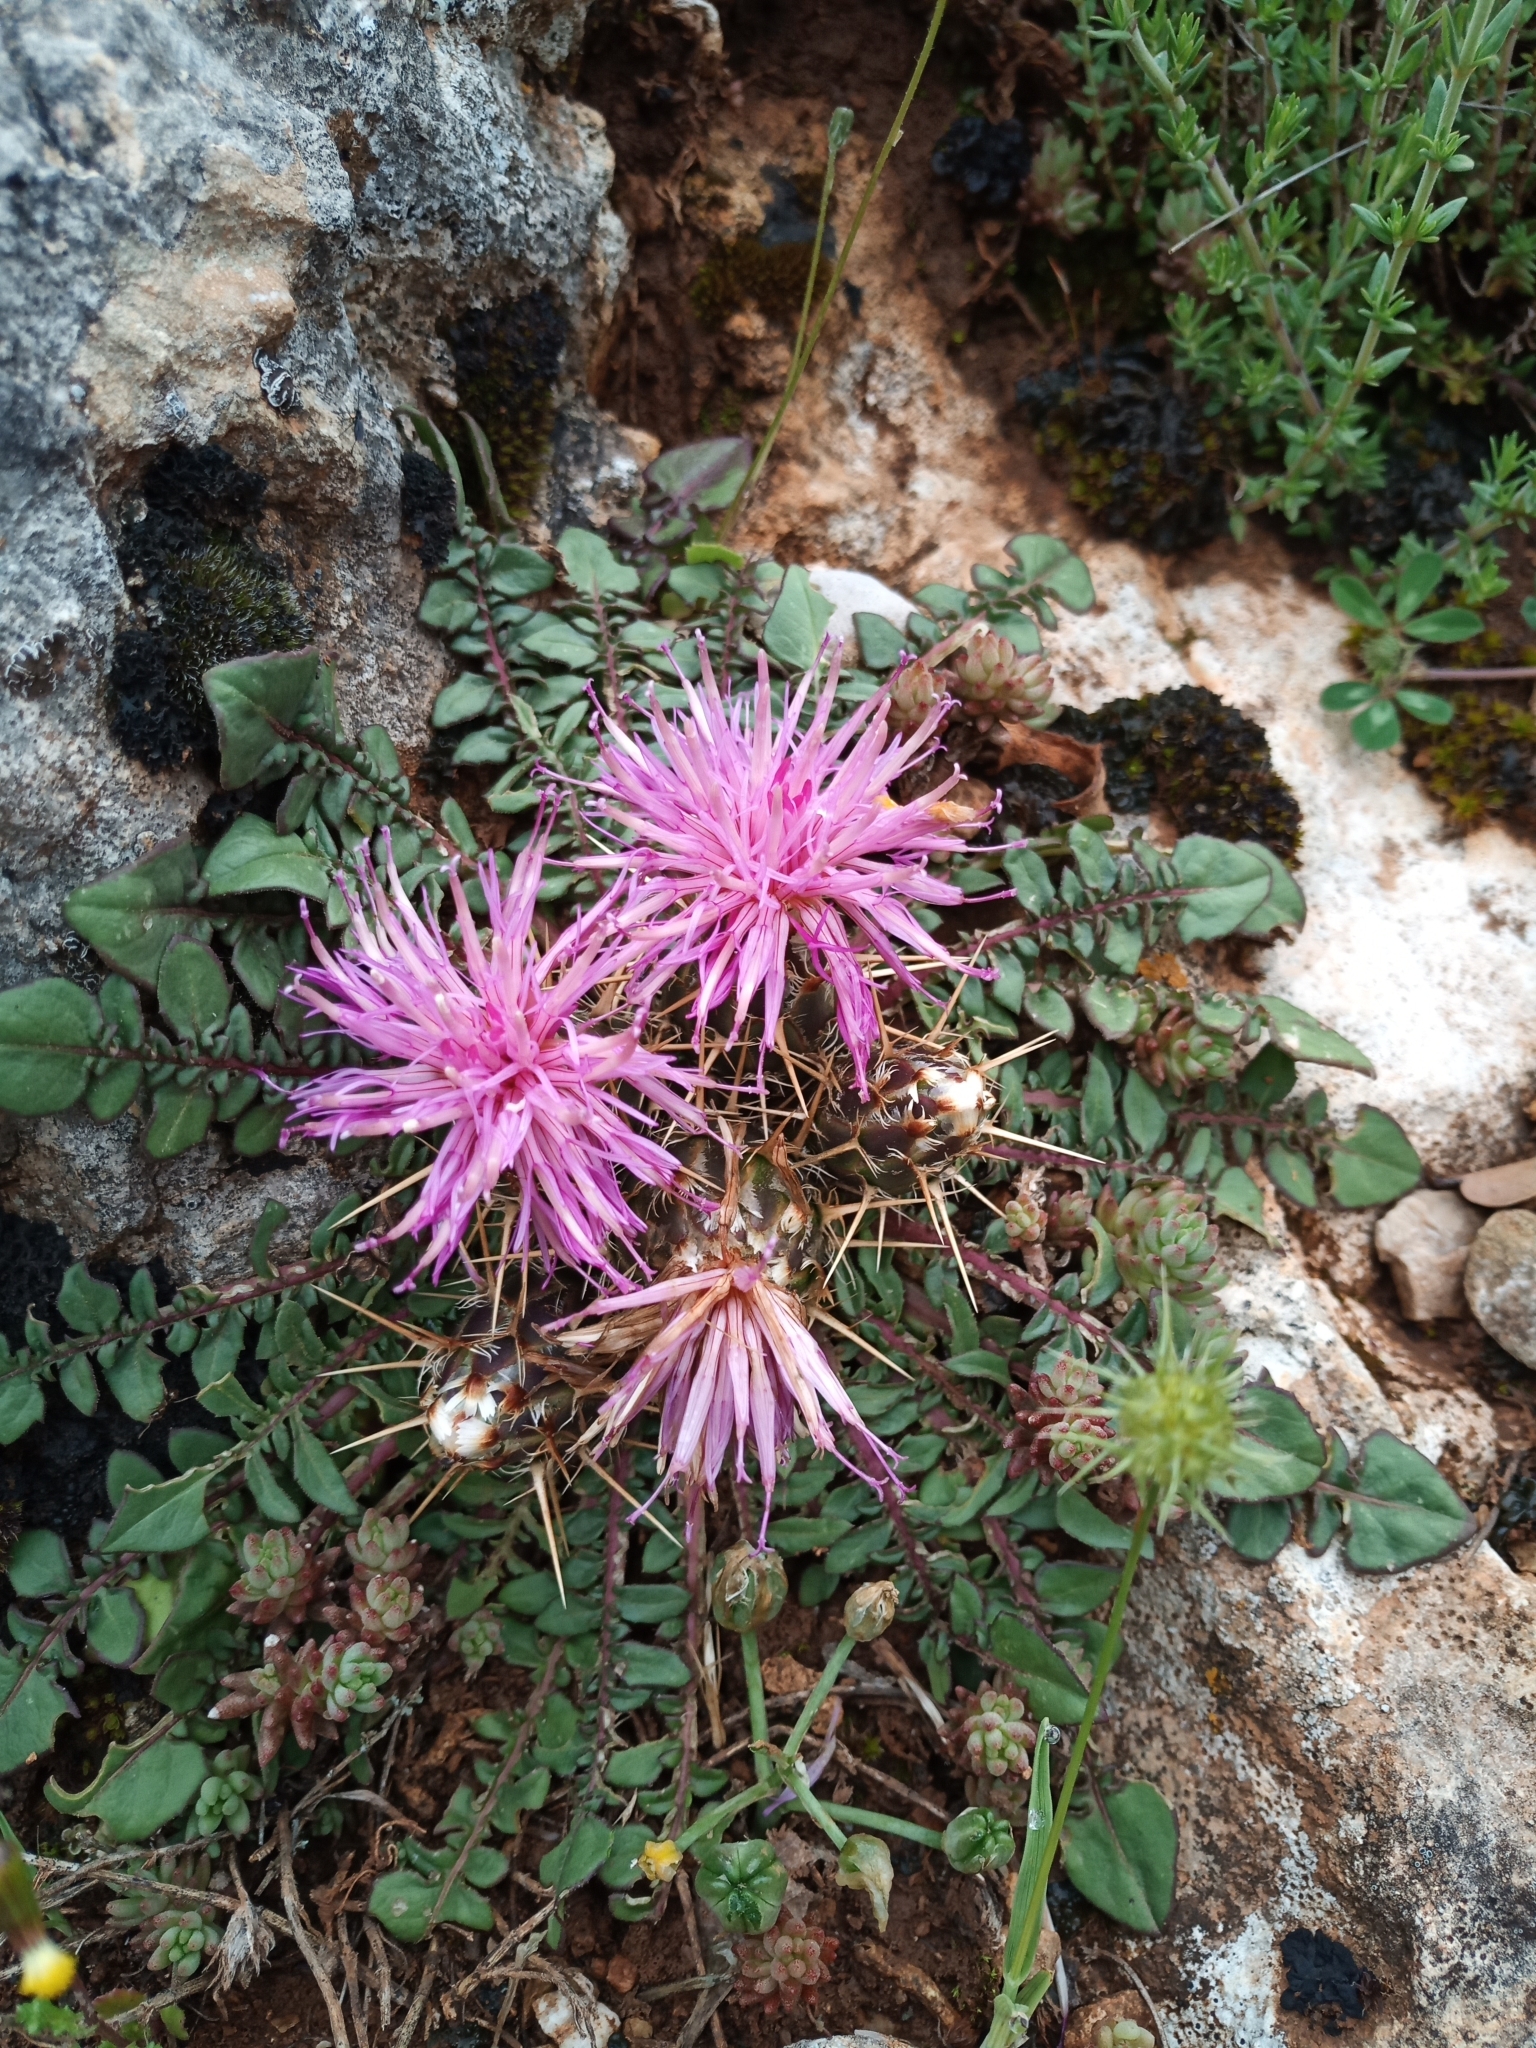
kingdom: Plantae
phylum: Tracheophyta
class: Magnoliopsida
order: Asterales
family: Asteraceae
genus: Centaurea
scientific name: Centaurea raphanina
